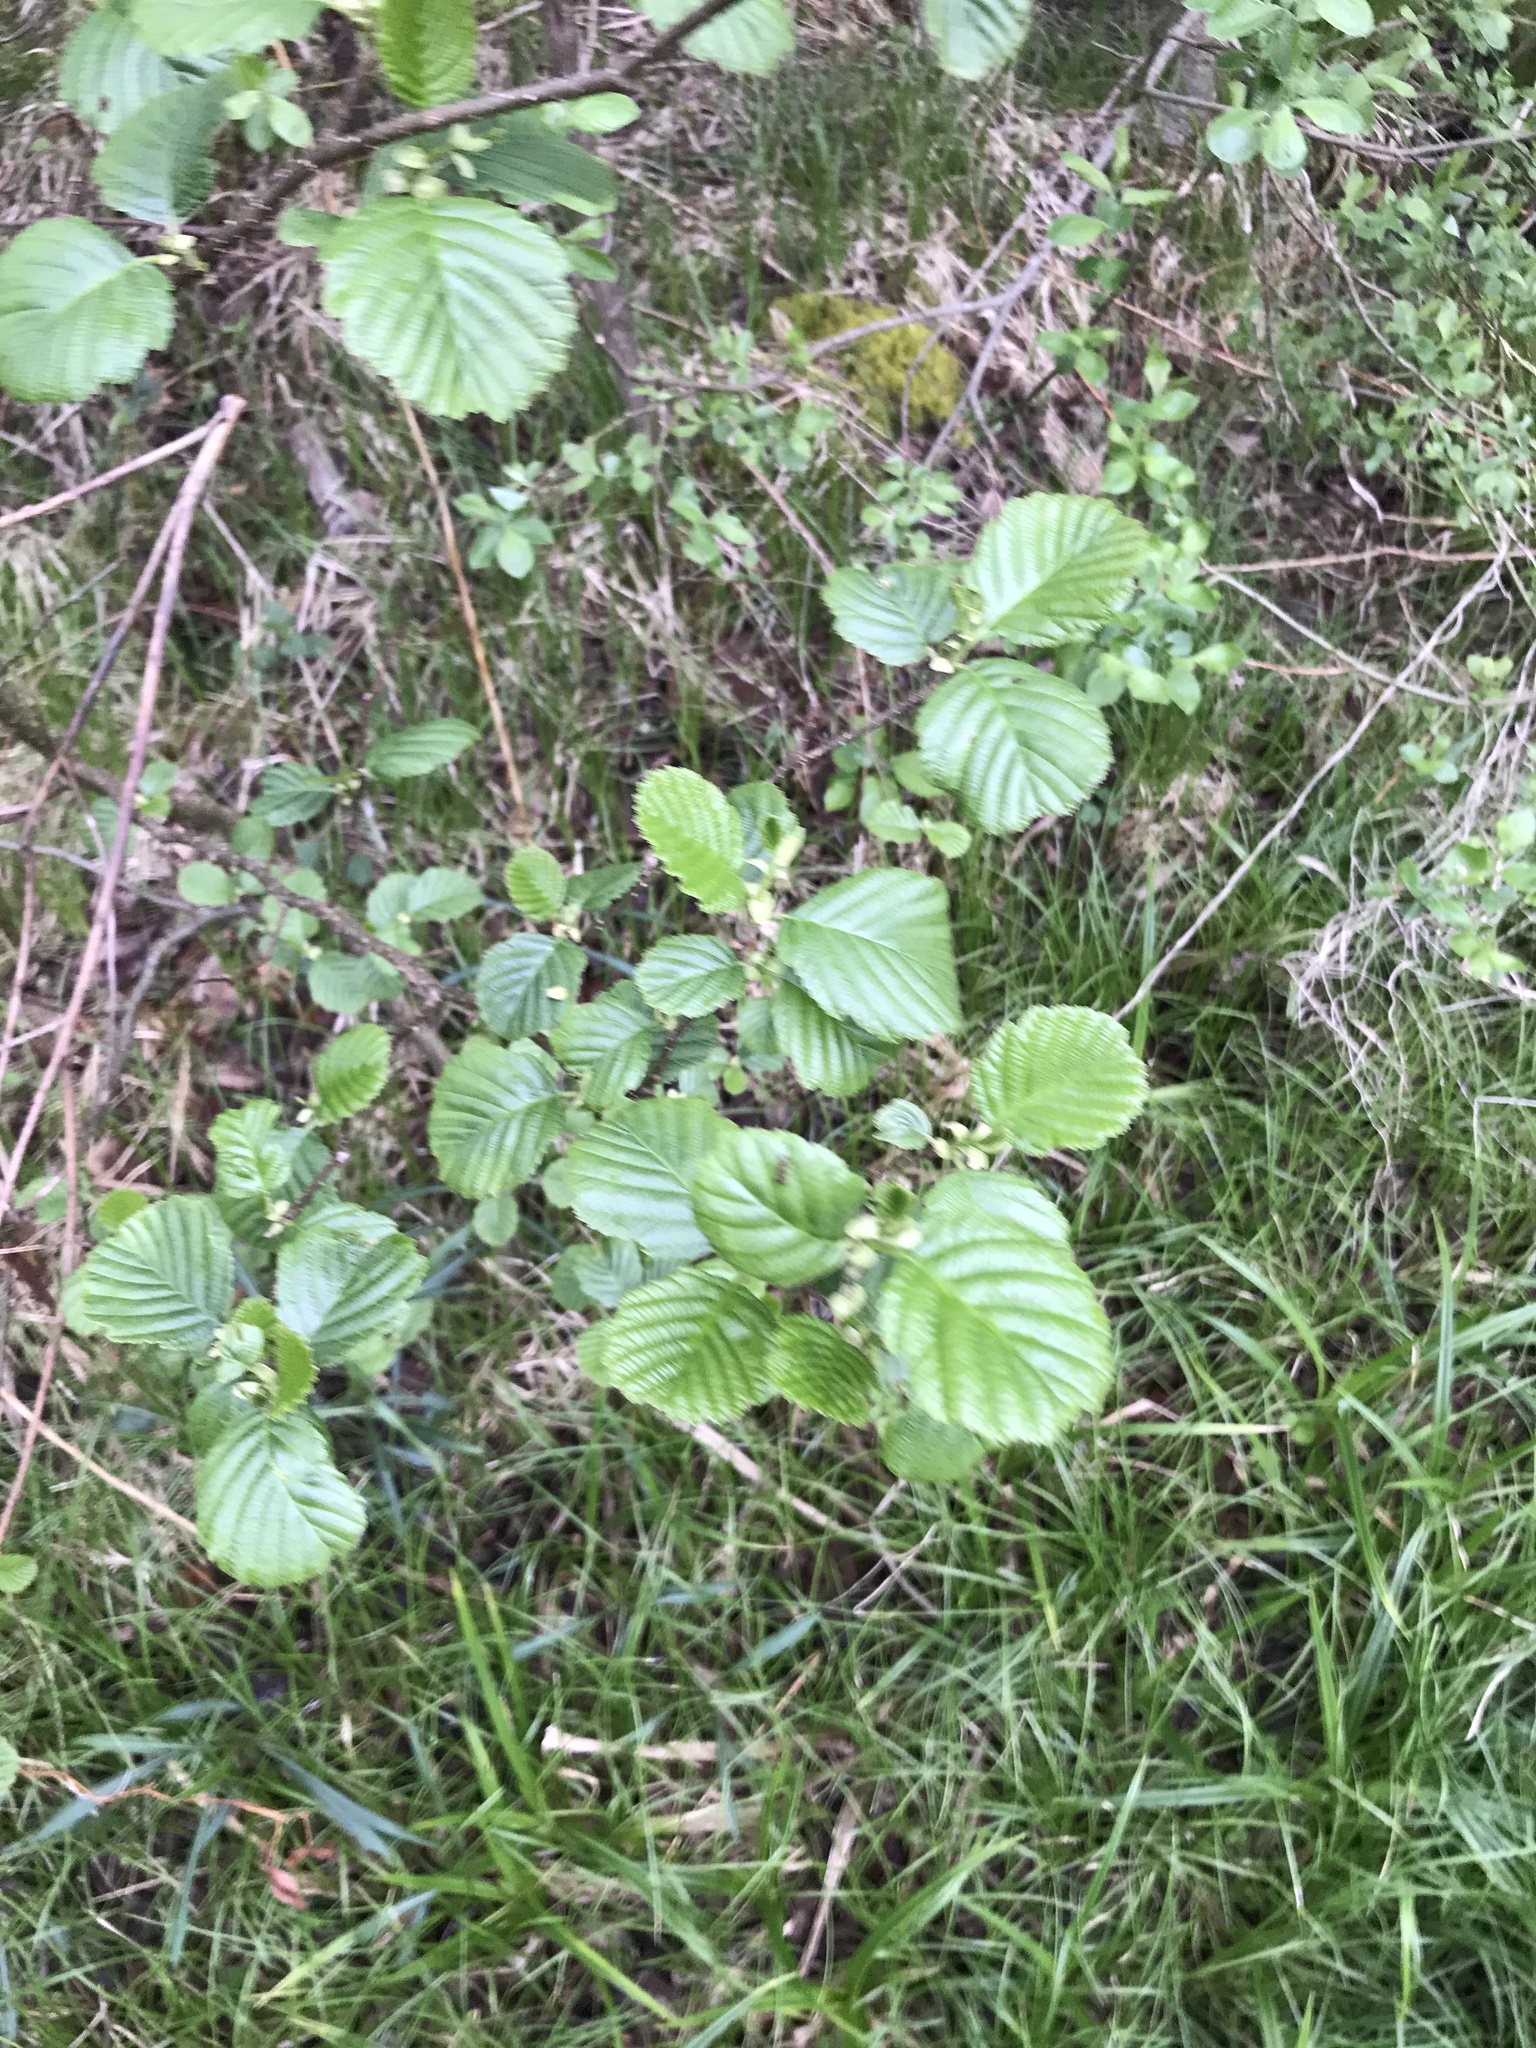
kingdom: Plantae
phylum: Tracheophyta
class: Magnoliopsida
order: Fagales
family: Betulaceae
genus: Alnus
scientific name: Alnus glutinosa
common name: Black alder
